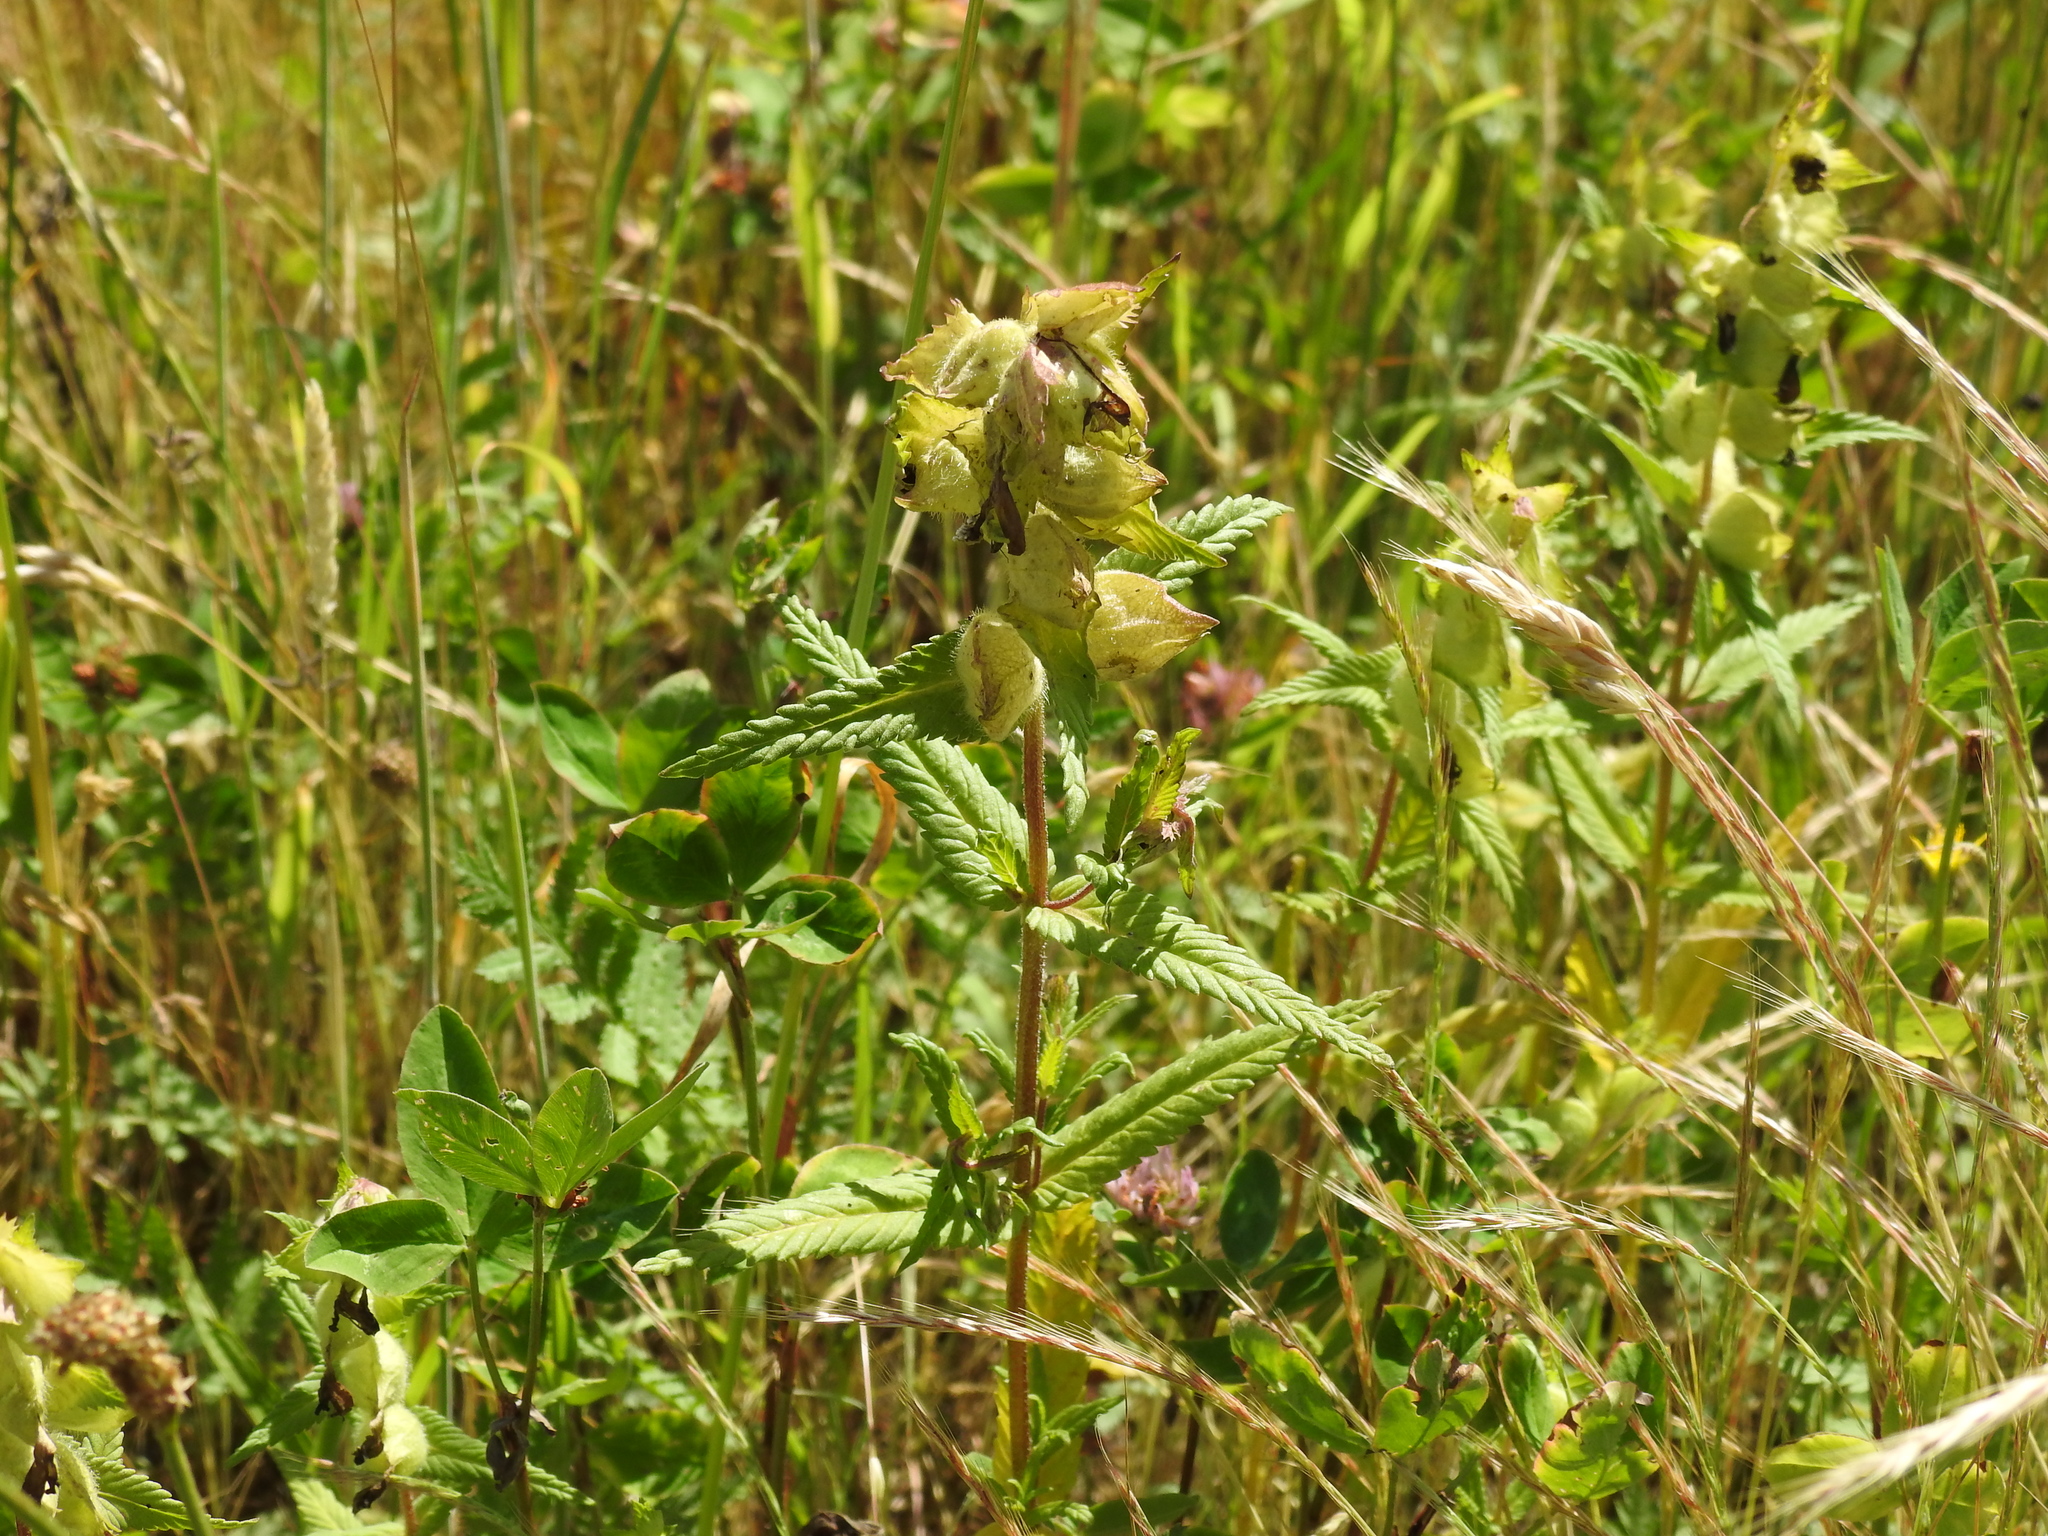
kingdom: Plantae
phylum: Tracheophyta
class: Magnoliopsida
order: Lamiales
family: Orobanchaceae
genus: Rhinanthus
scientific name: Rhinanthus alectorolophus
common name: Greater yellow-rattle
